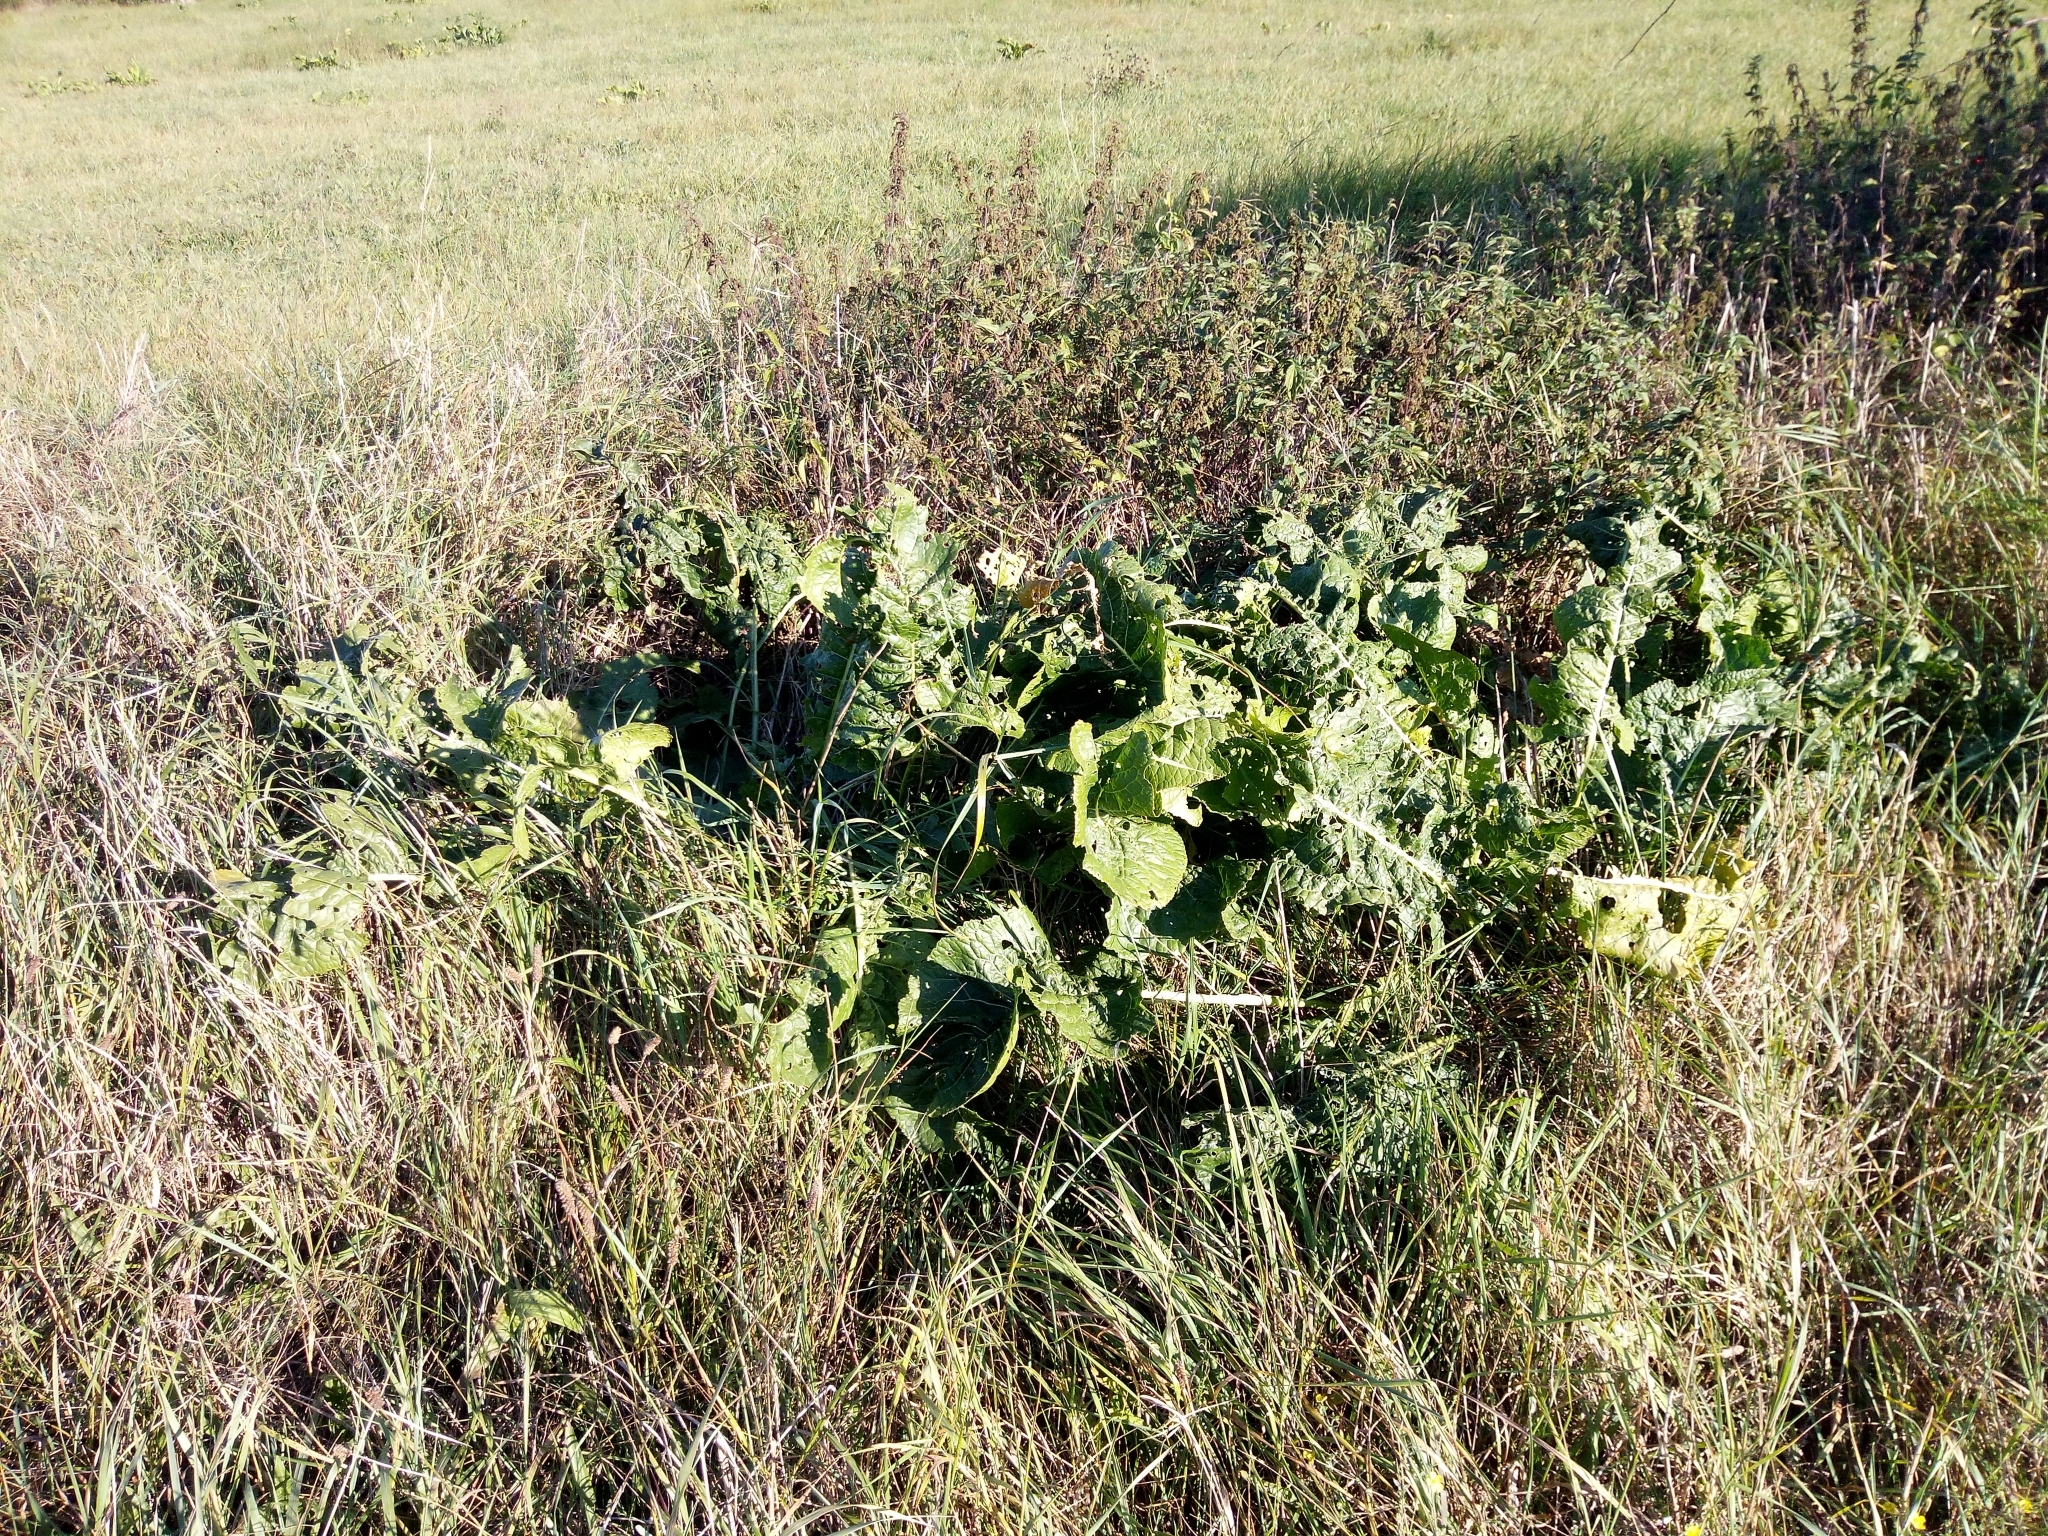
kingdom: Plantae
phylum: Tracheophyta
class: Magnoliopsida
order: Brassicales
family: Brassicaceae
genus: Armoracia
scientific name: Armoracia rusticana
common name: Horseradish
